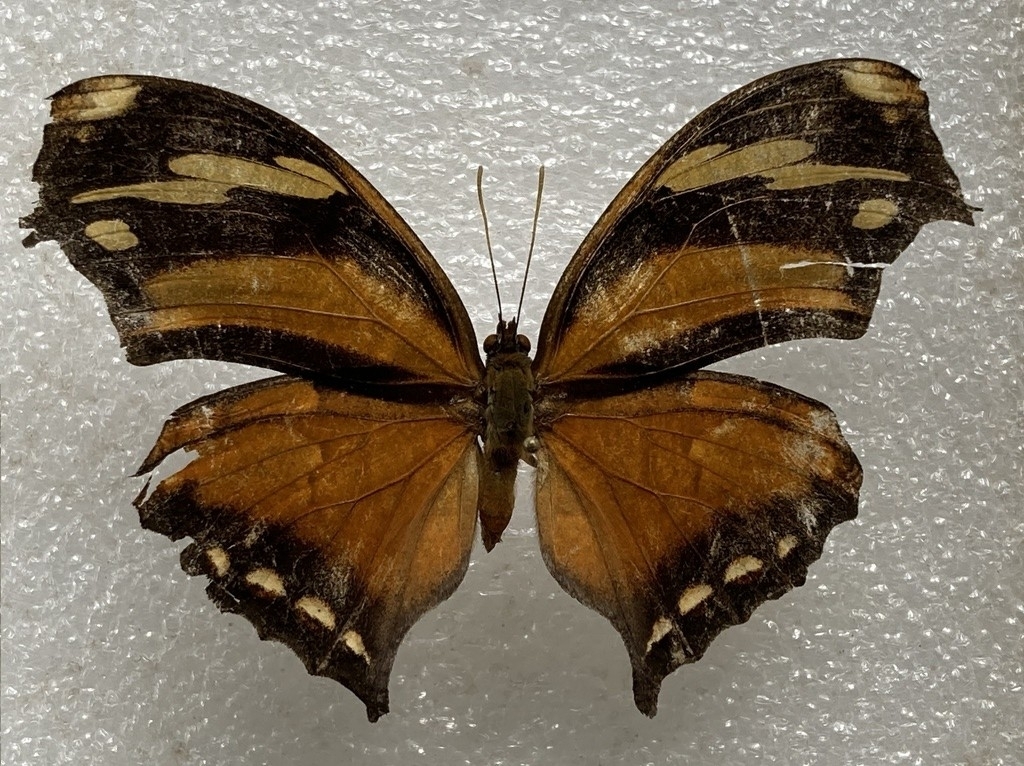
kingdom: Animalia
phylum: Arthropoda
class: Insecta
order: Lepidoptera
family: Nymphalidae
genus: Consul
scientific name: Consul fabius
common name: Tiger leafwing
